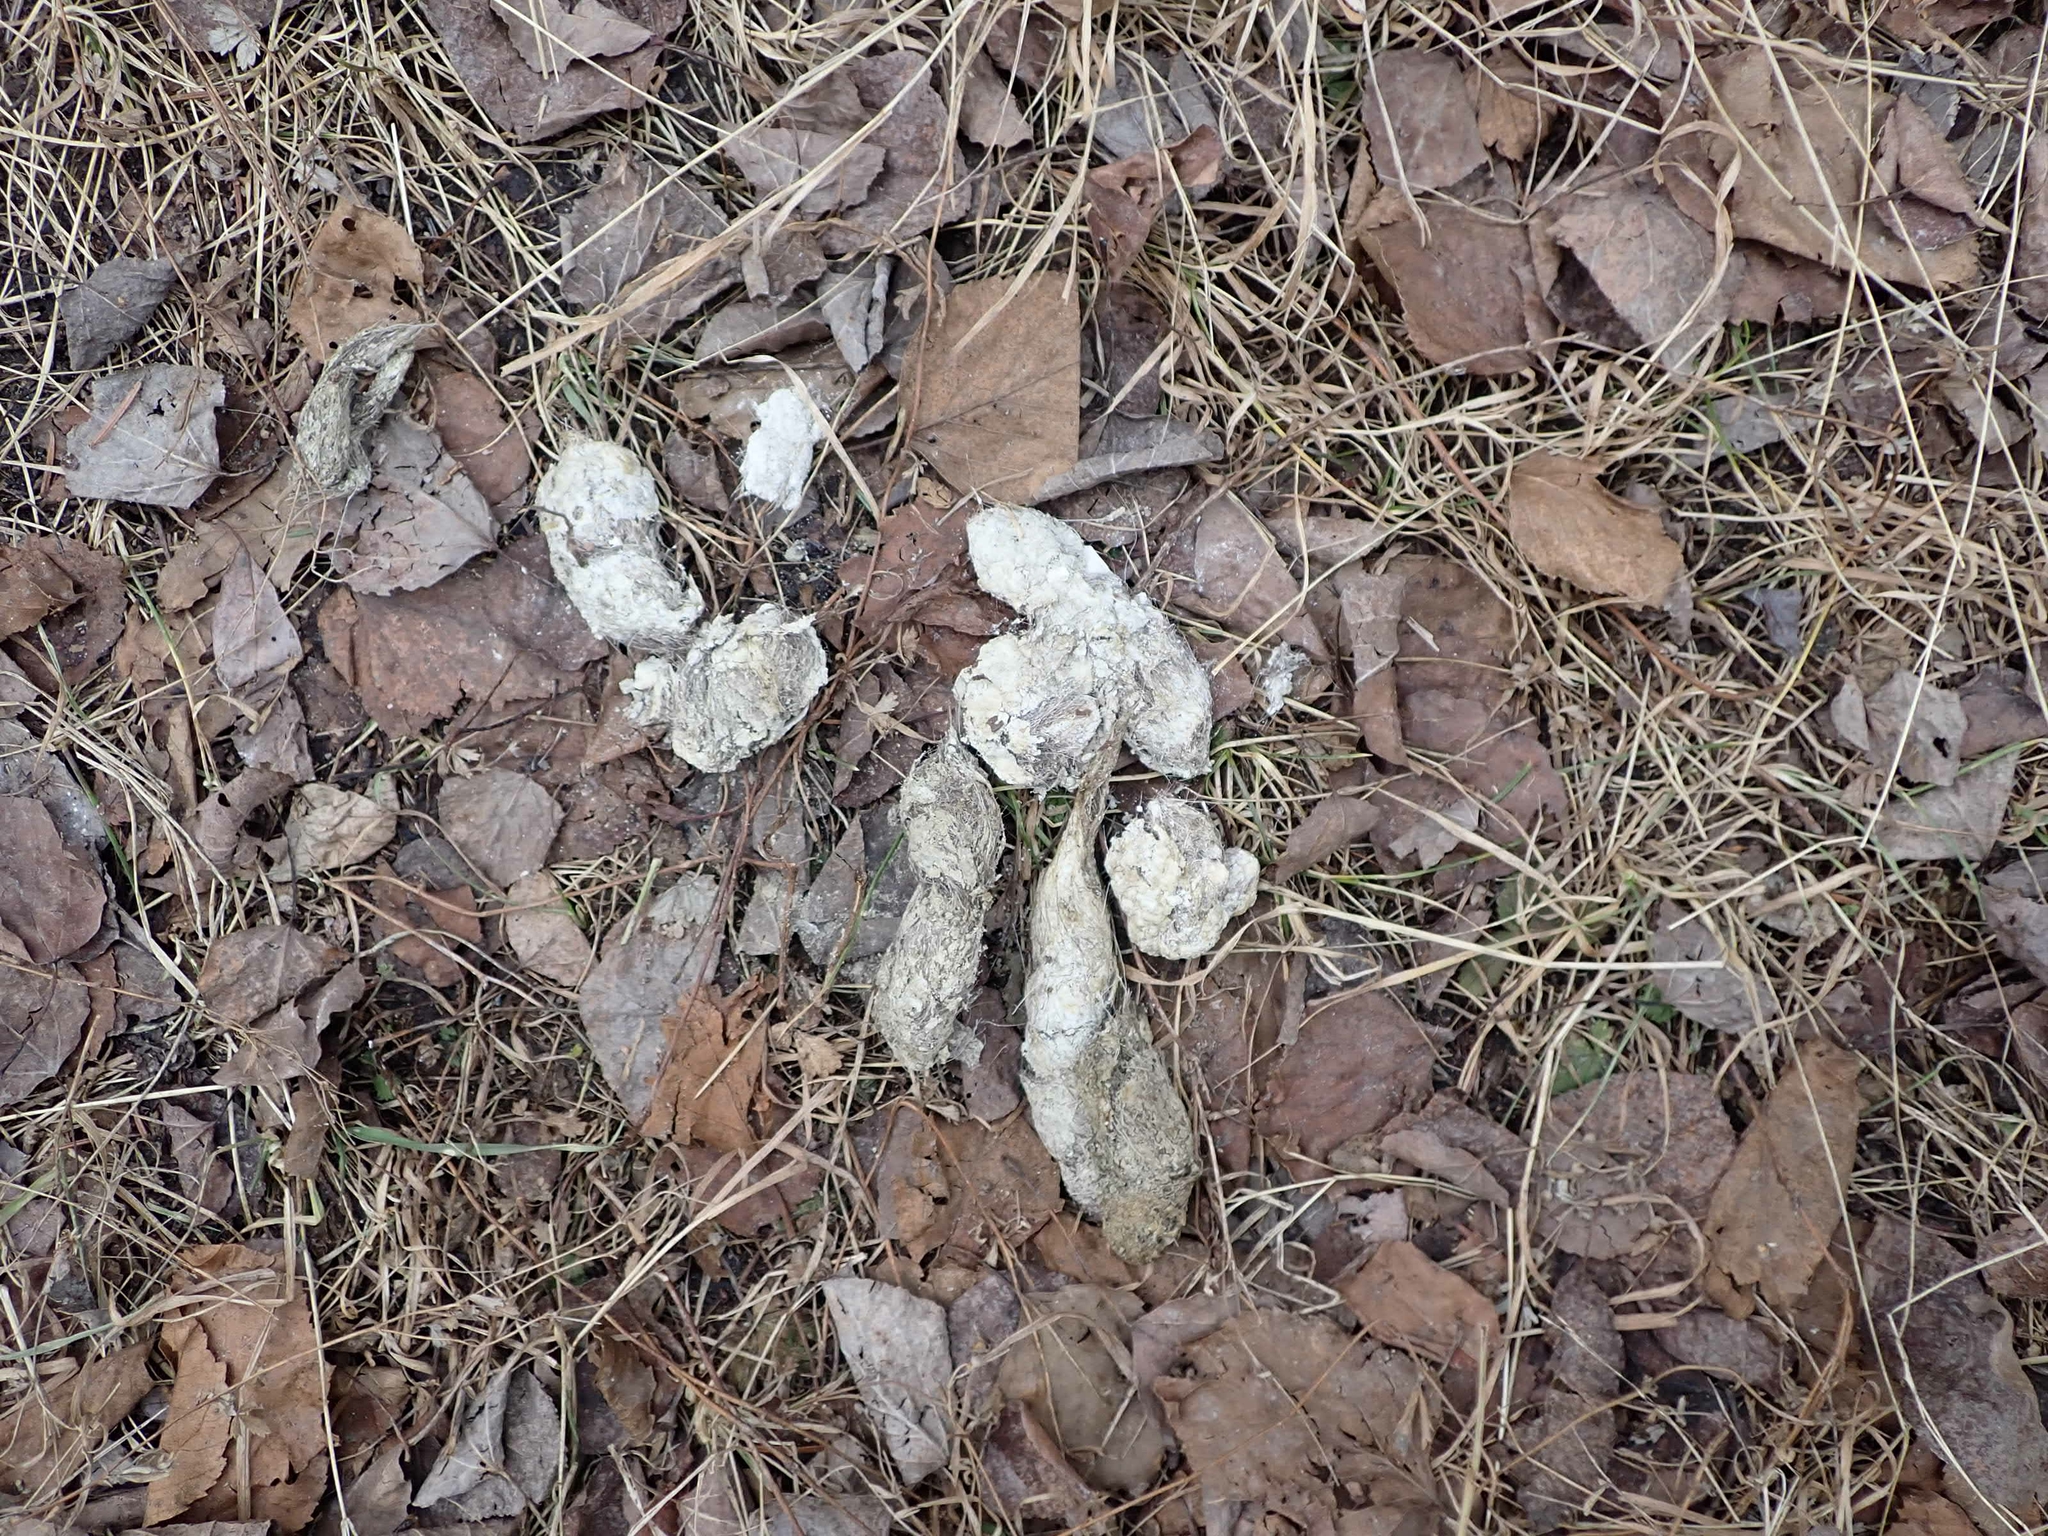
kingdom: Animalia
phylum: Chordata
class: Mammalia
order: Carnivora
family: Canidae
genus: Canis
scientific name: Canis latrans
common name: Coyote
